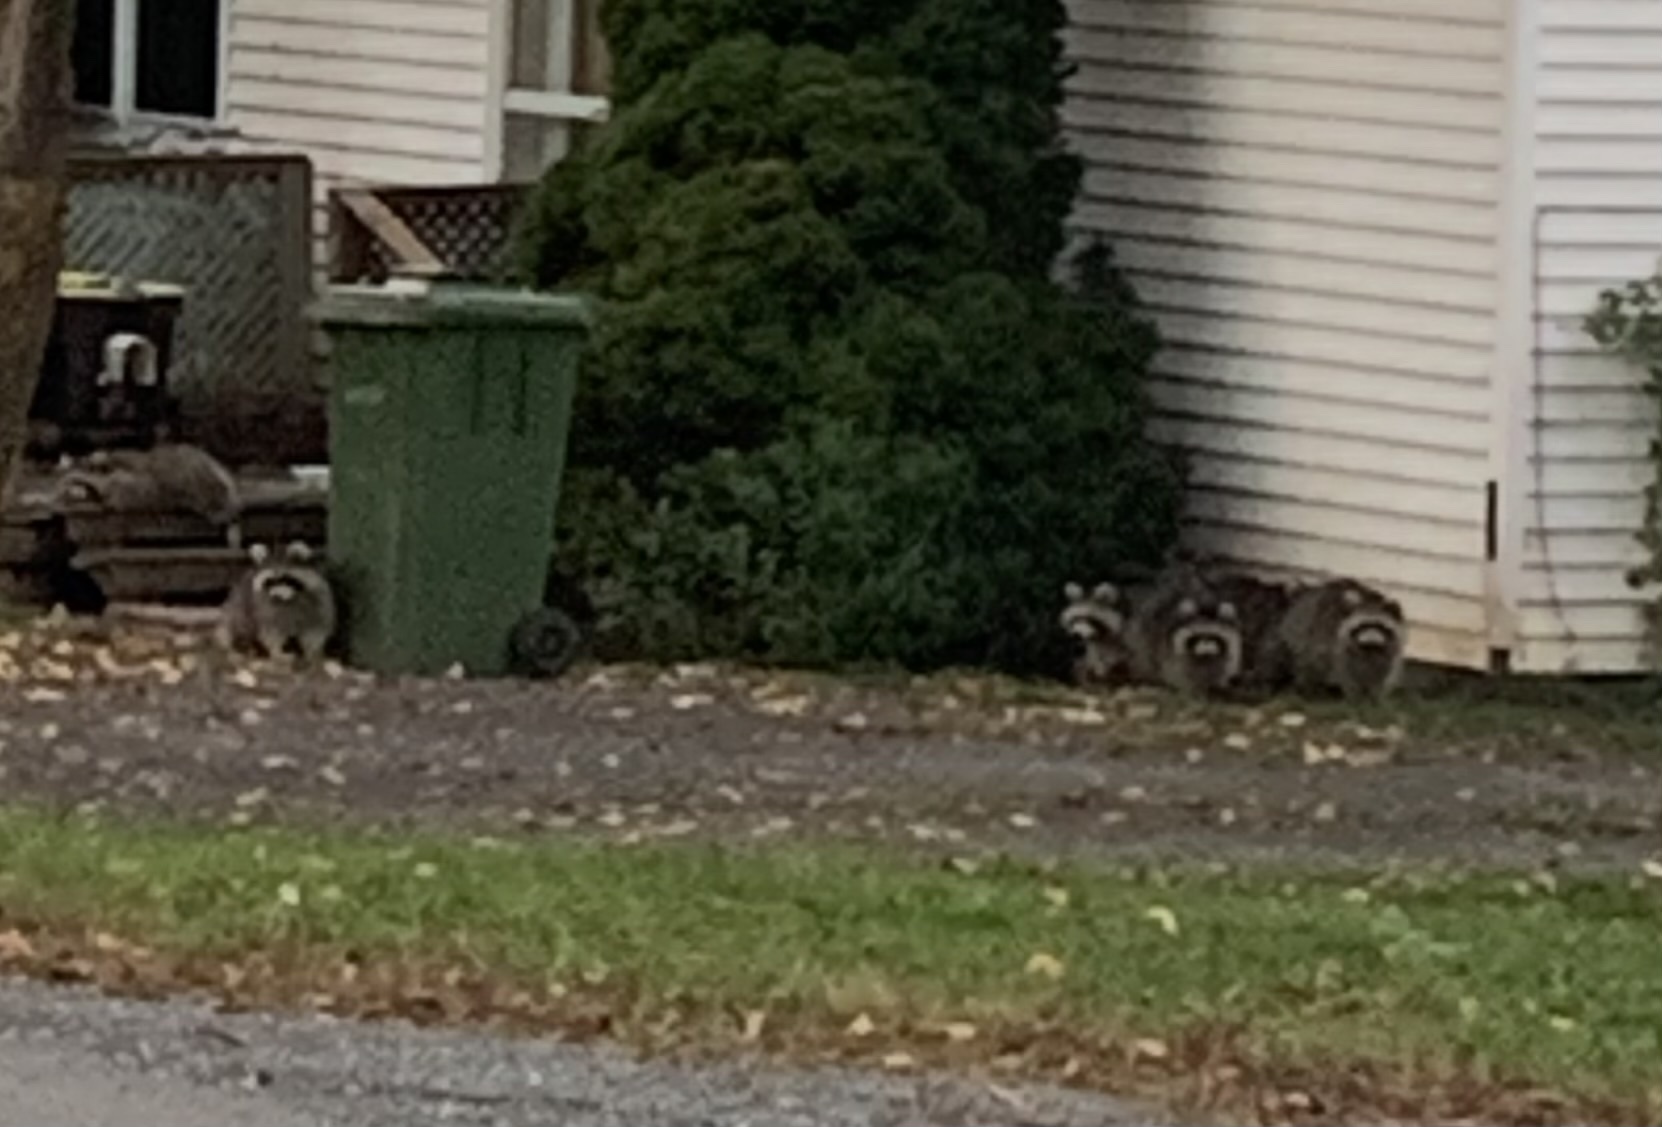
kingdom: Animalia
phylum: Chordata
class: Mammalia
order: Carnivora
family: Procyonidae
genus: Procyon
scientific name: Procyon lotor
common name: Raccoon
